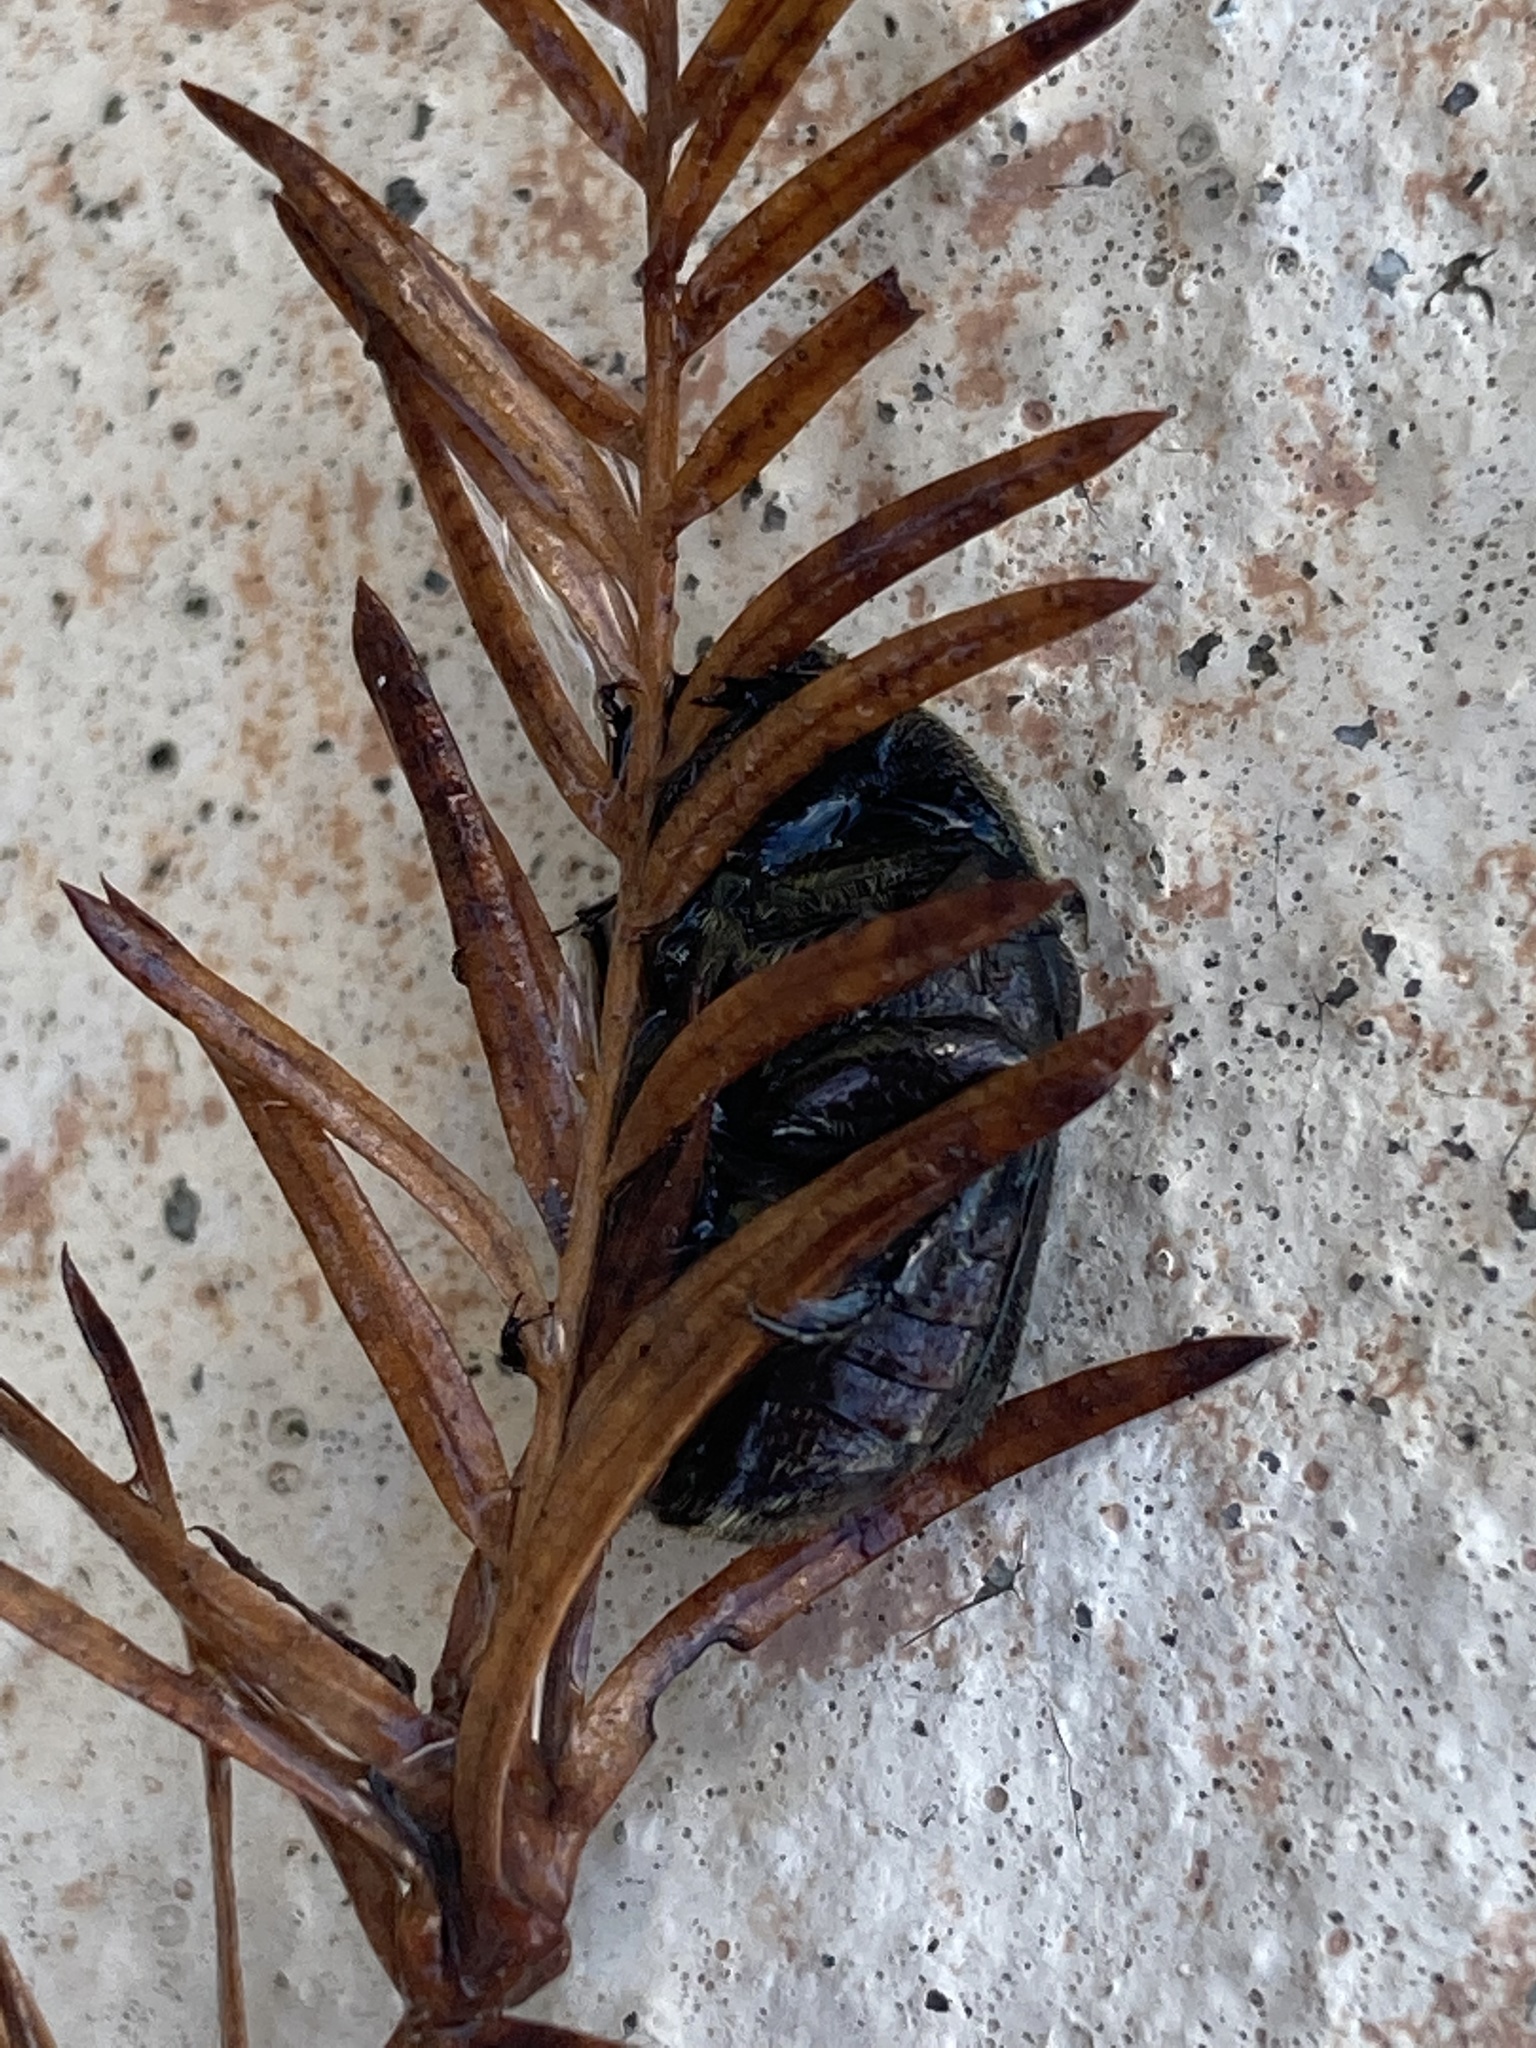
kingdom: Animalia
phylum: Arthropoda
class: Insecta
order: Coleoptera
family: Scarabaeidae
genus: Euphoria
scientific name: Euphoria sepulcralis
